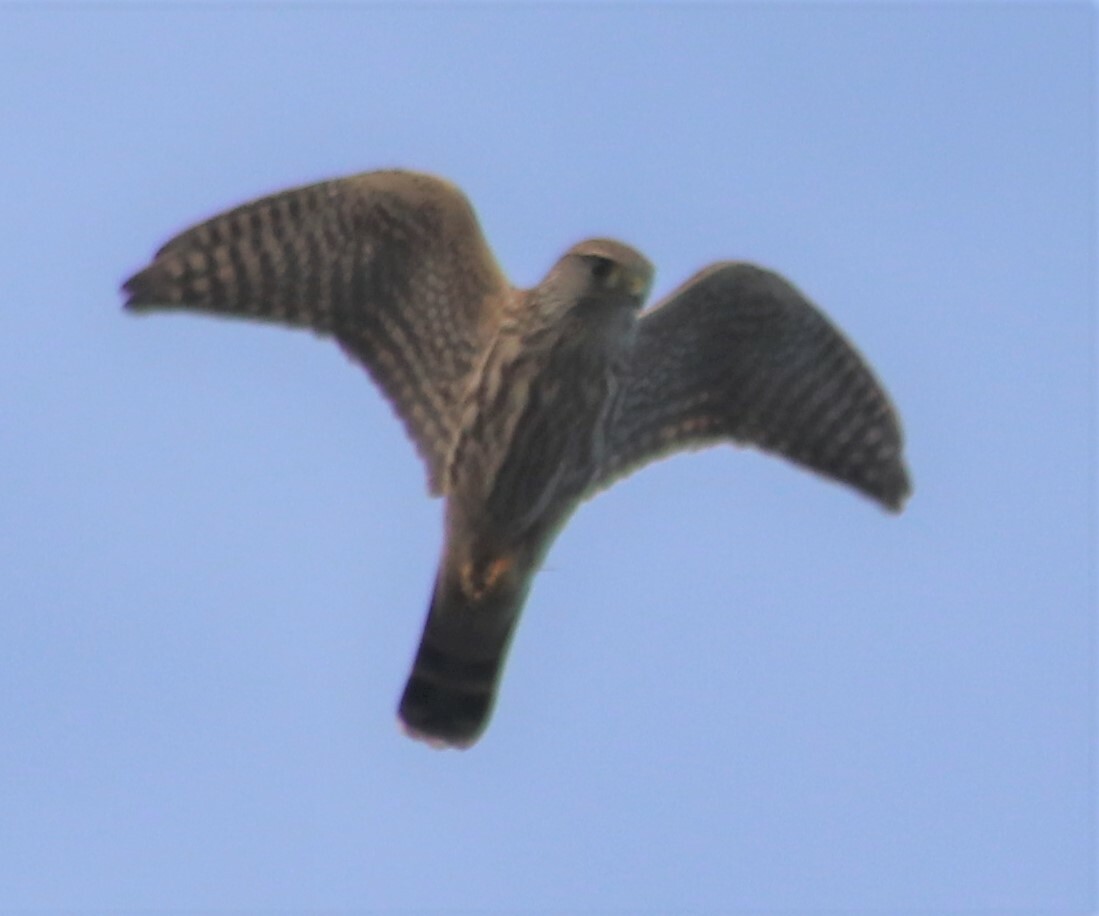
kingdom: Animalia
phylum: Chordata
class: Aves
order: Falconiformes
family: Falconidae
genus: Falco
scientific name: Falco columbarius
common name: Merlin
